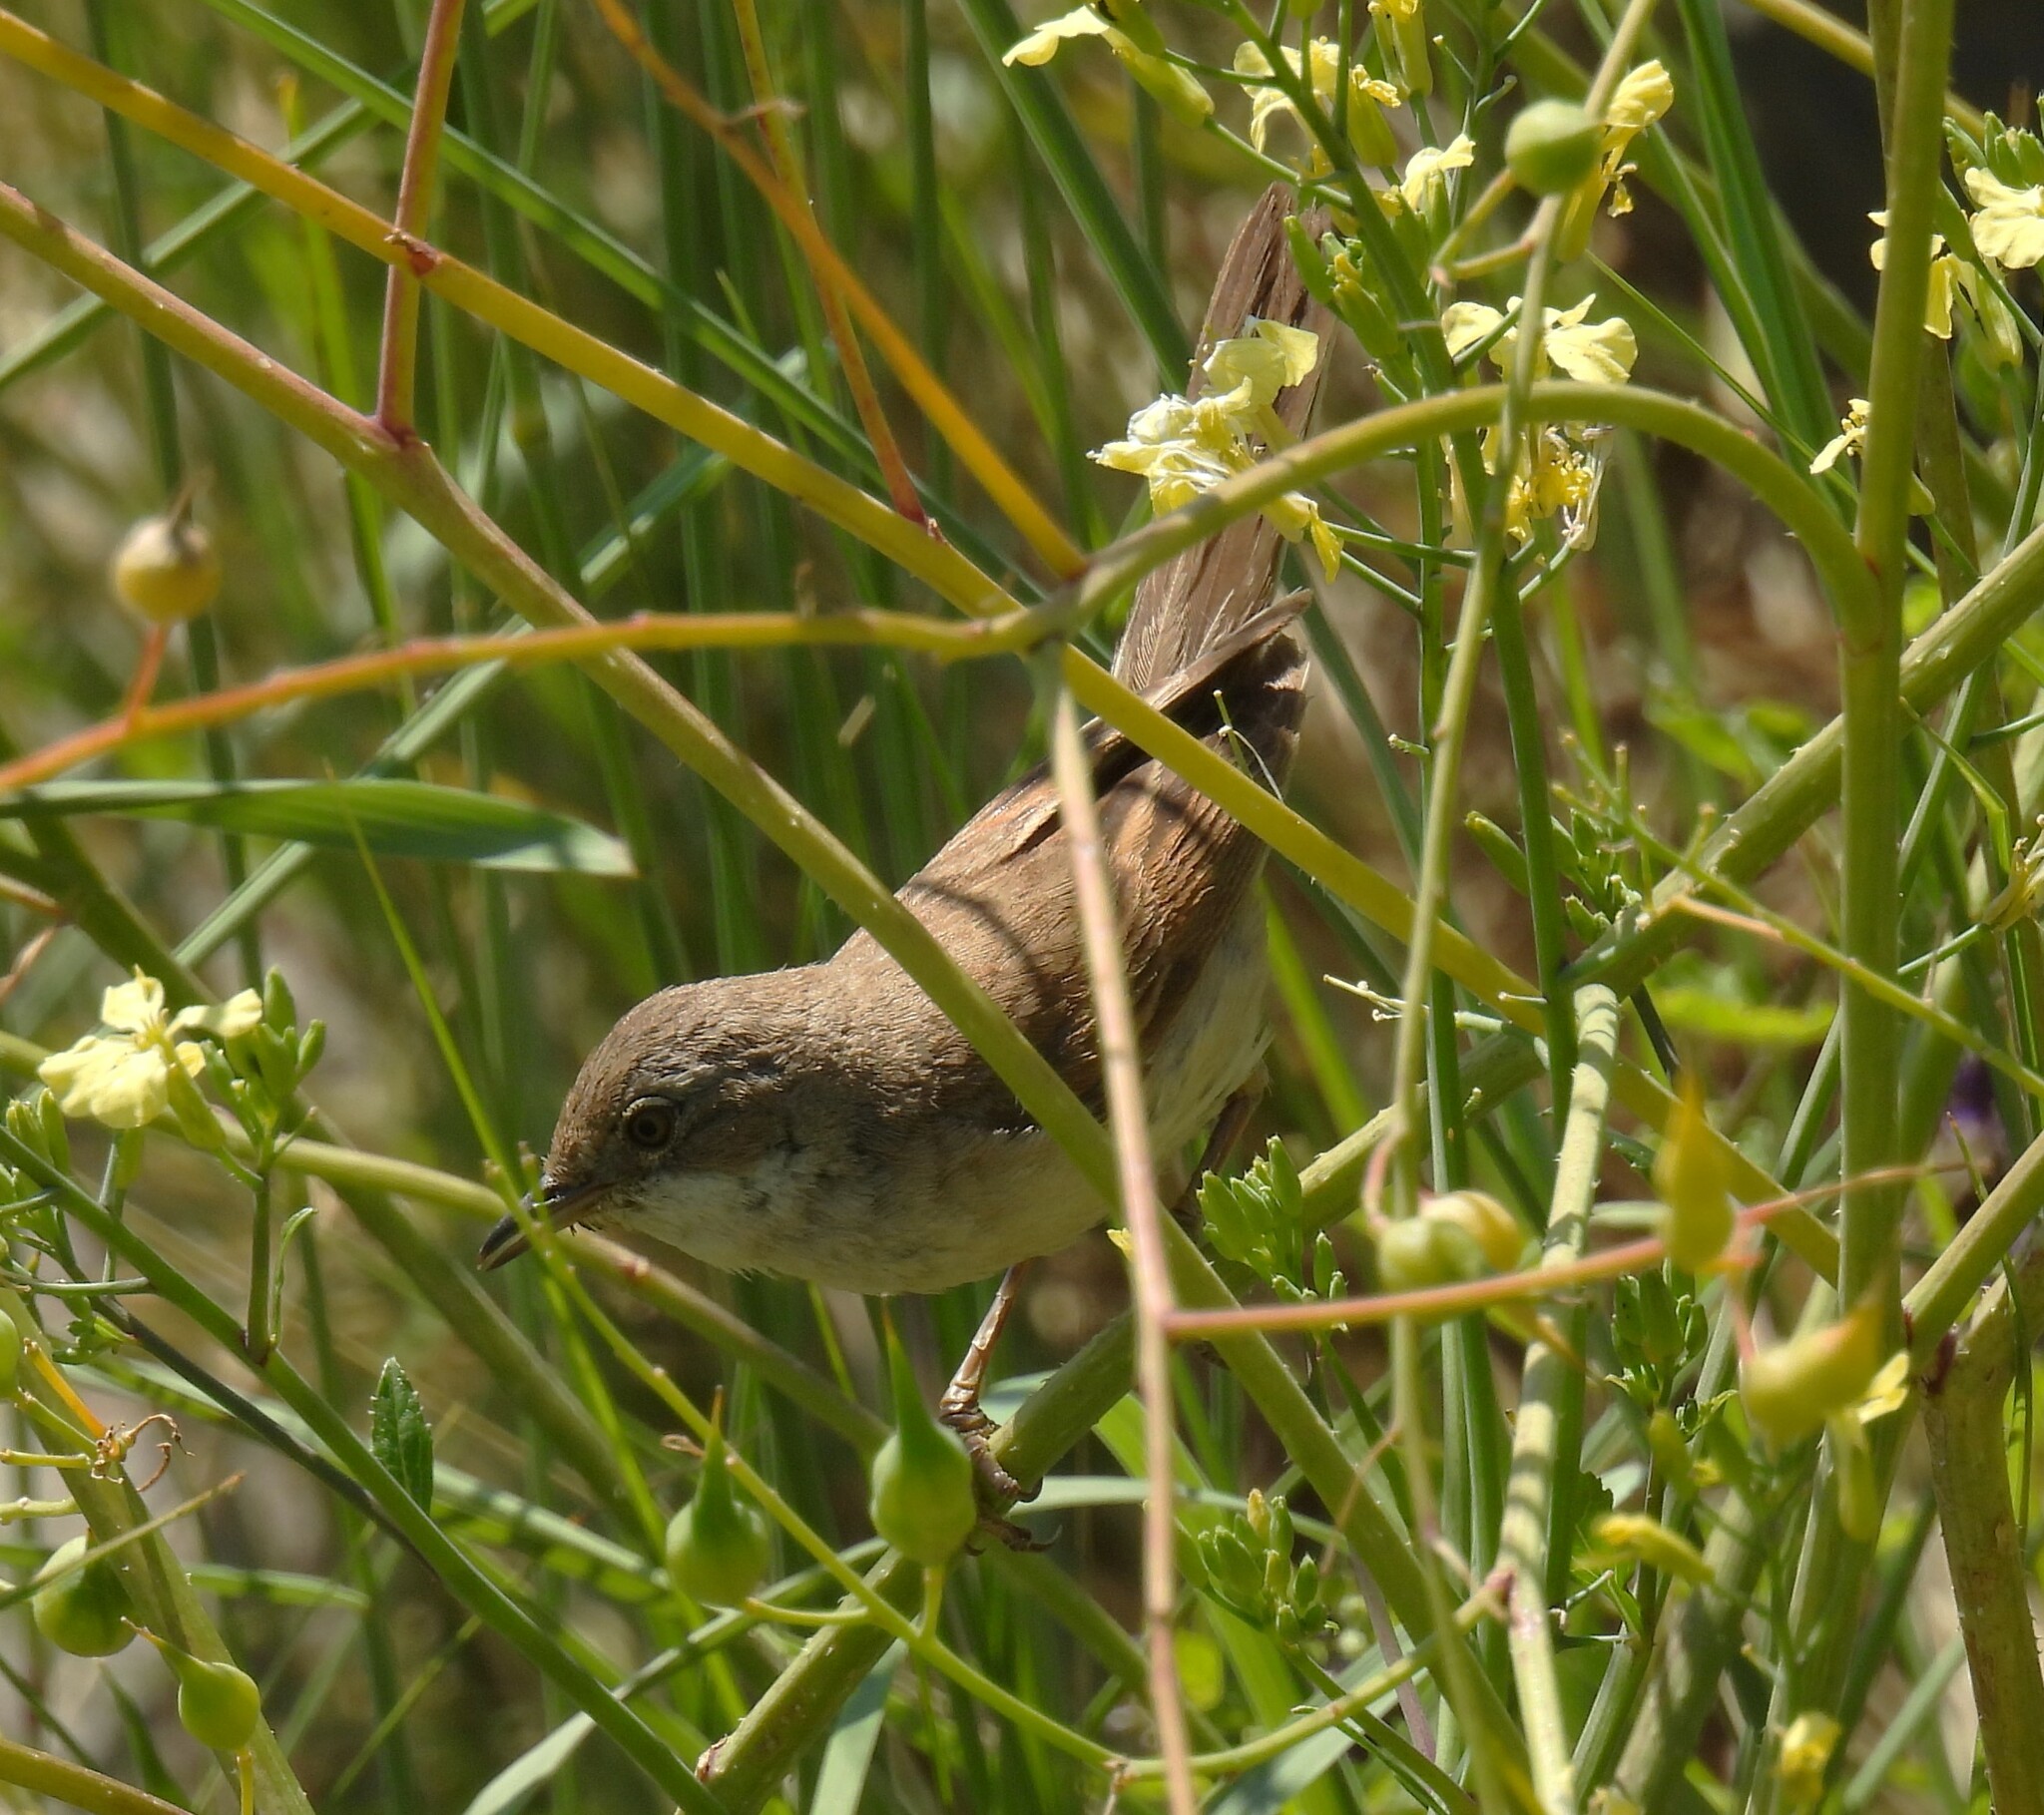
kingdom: Animalia
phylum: Chordata
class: Aves
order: Passeriformes
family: Sylviidae
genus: Sylvia
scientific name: Sylvia communis
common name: Common whitethroat
